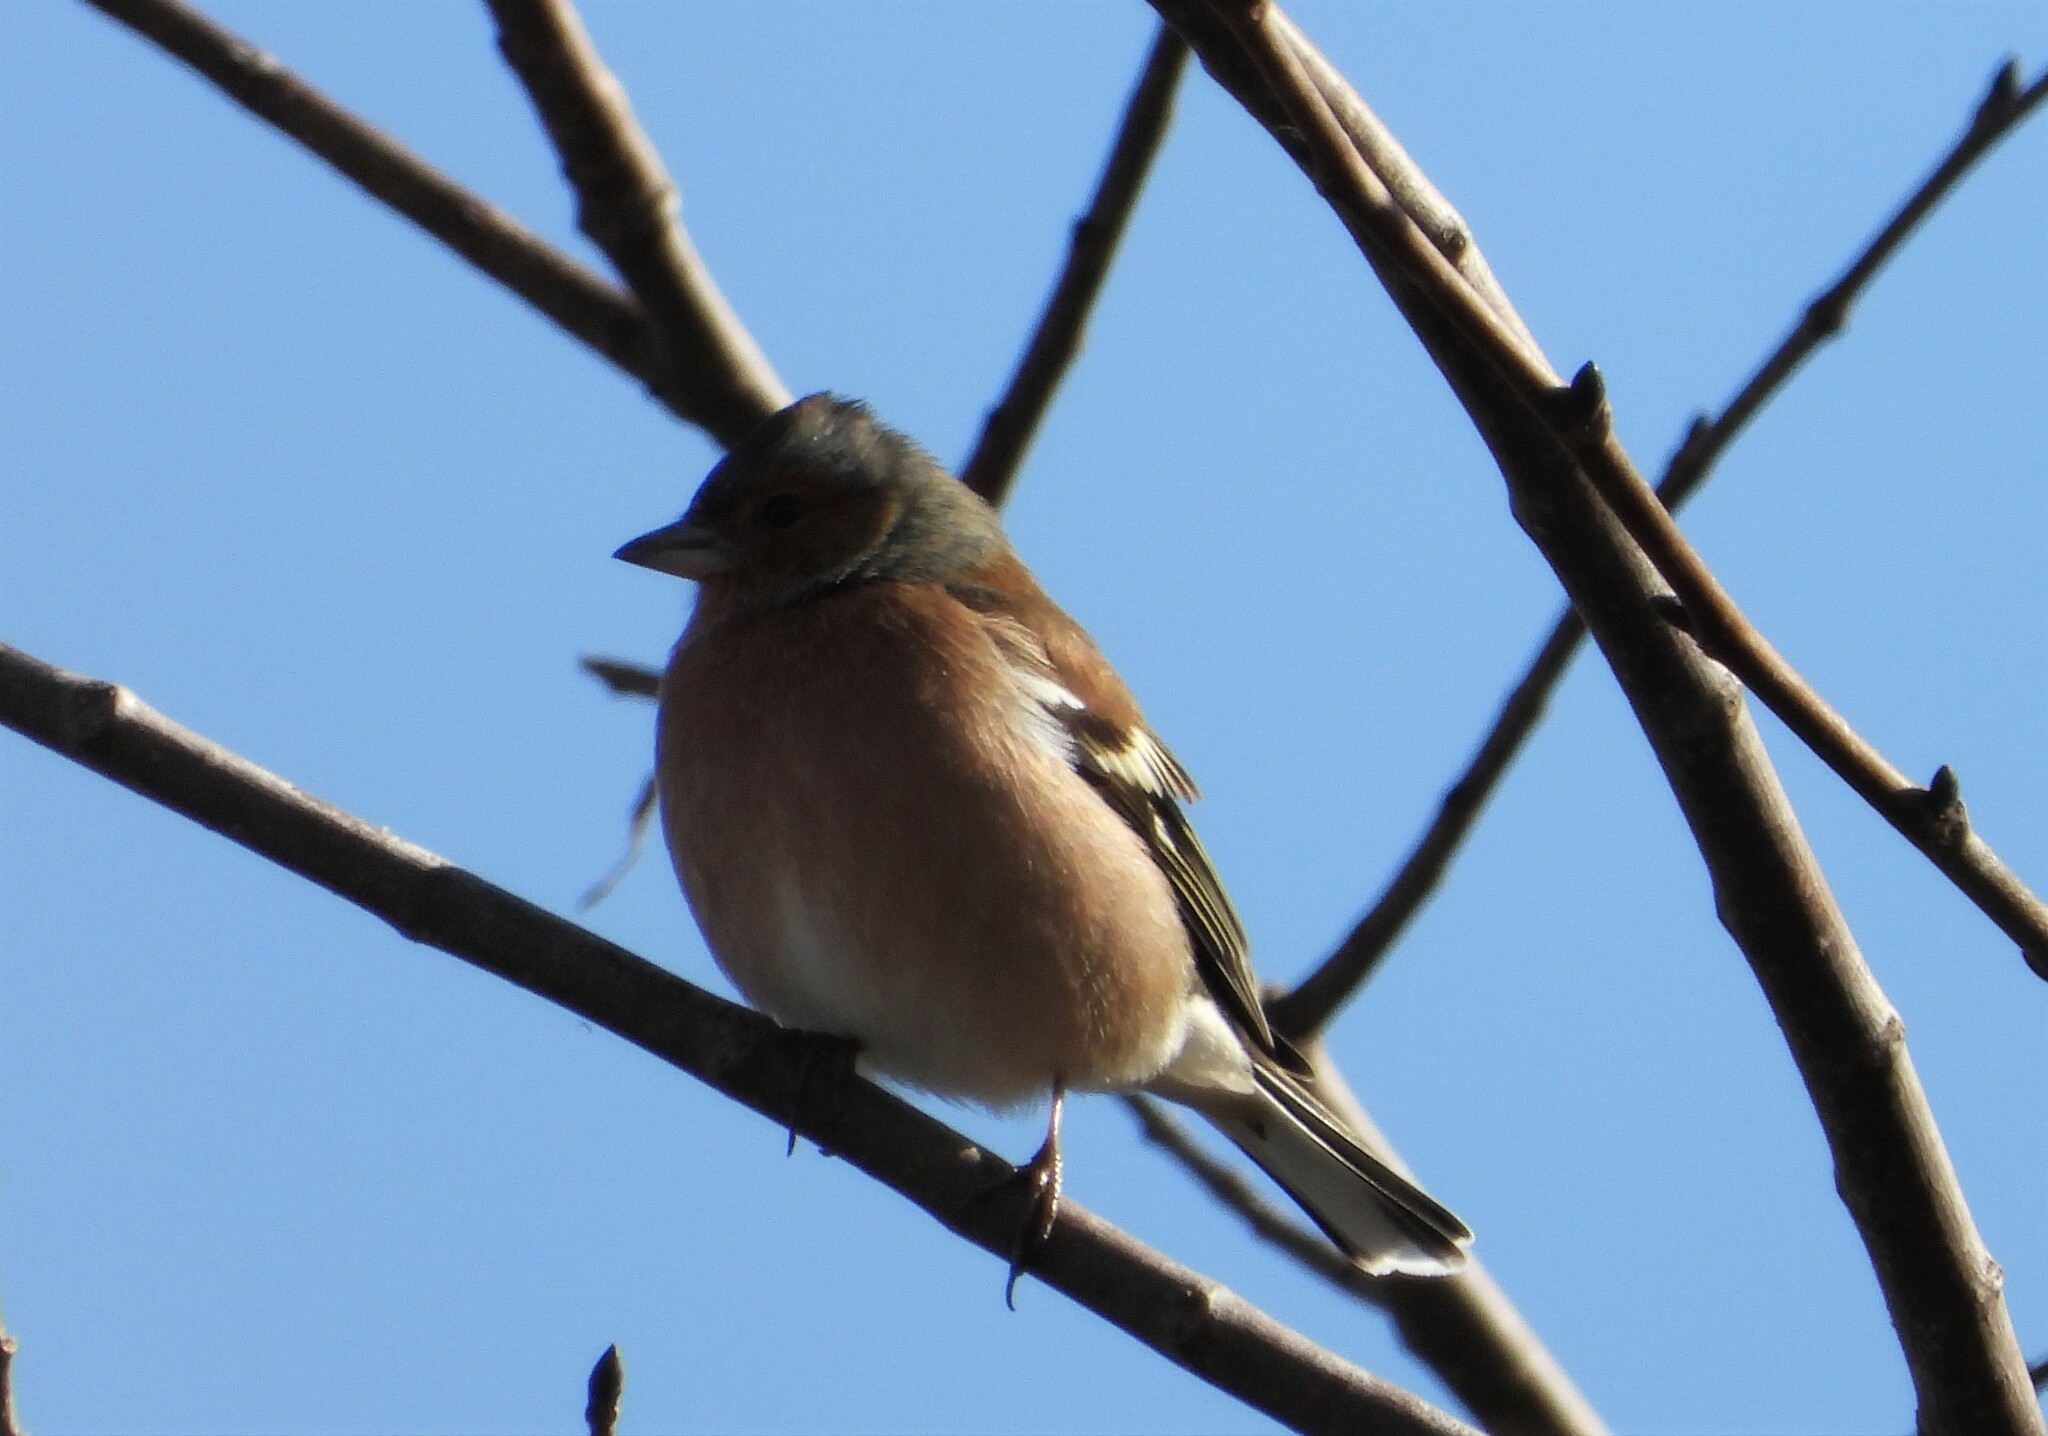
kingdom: Animalia
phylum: Chordata
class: Aves
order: Passeriformes
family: Fringillidae
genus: Fringilla
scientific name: Fringilla coelebs
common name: Common chaffinch
